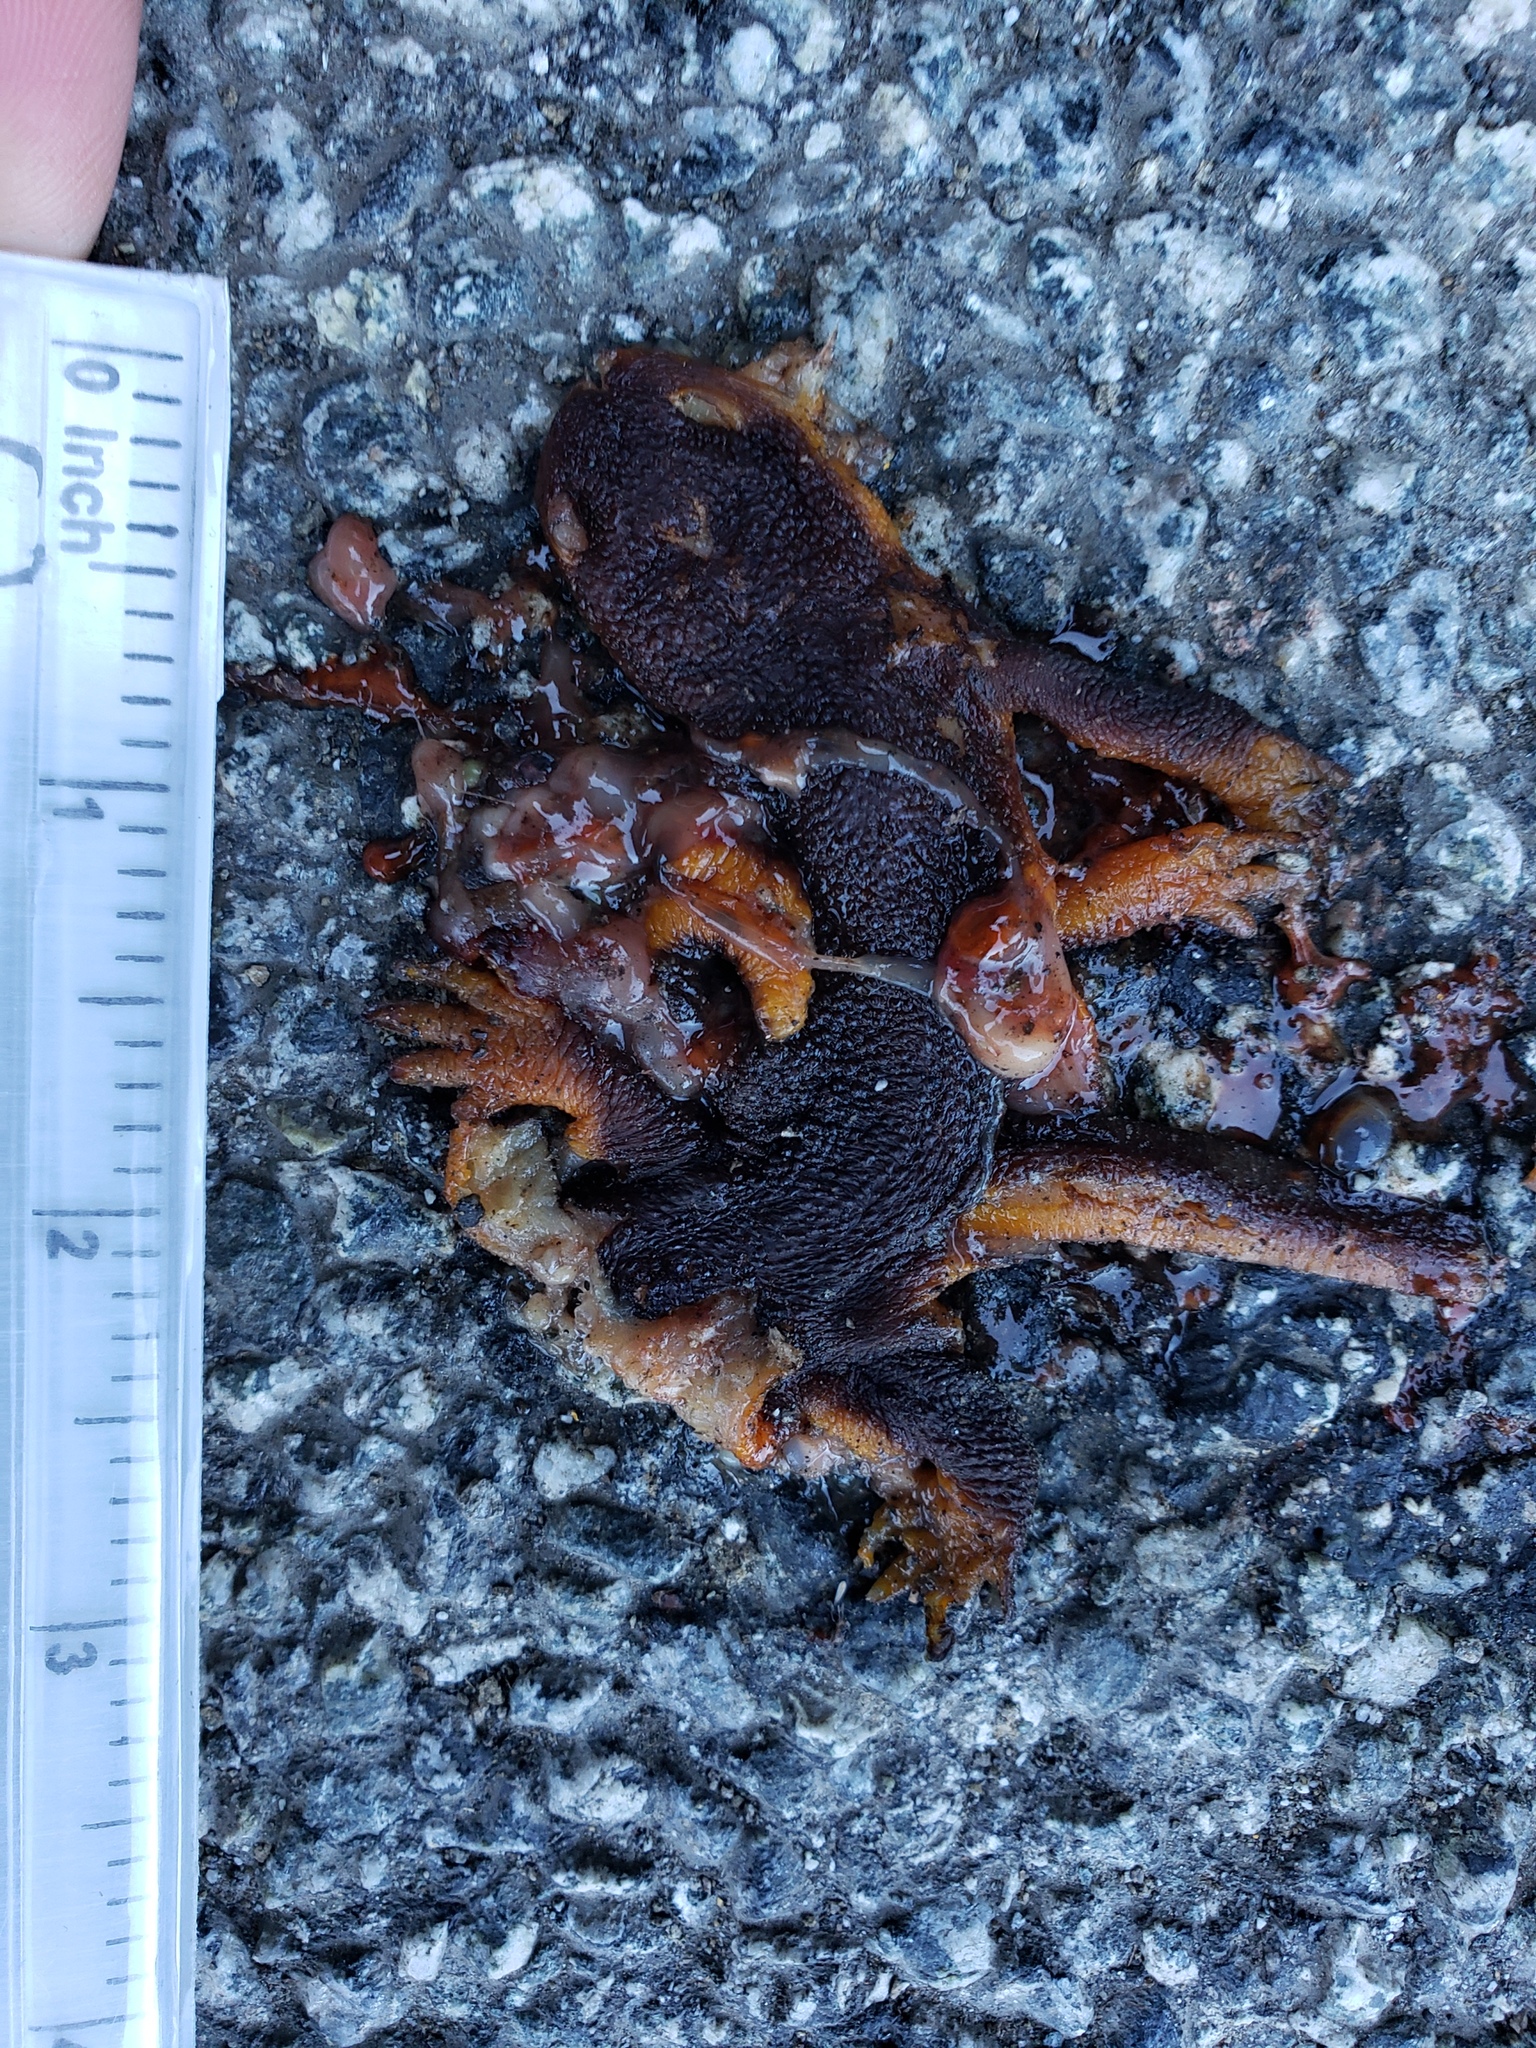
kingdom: Animalia
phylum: Chordata
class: Amphibia
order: Caudata
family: Salamandridae
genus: Taricha
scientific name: Taricha
